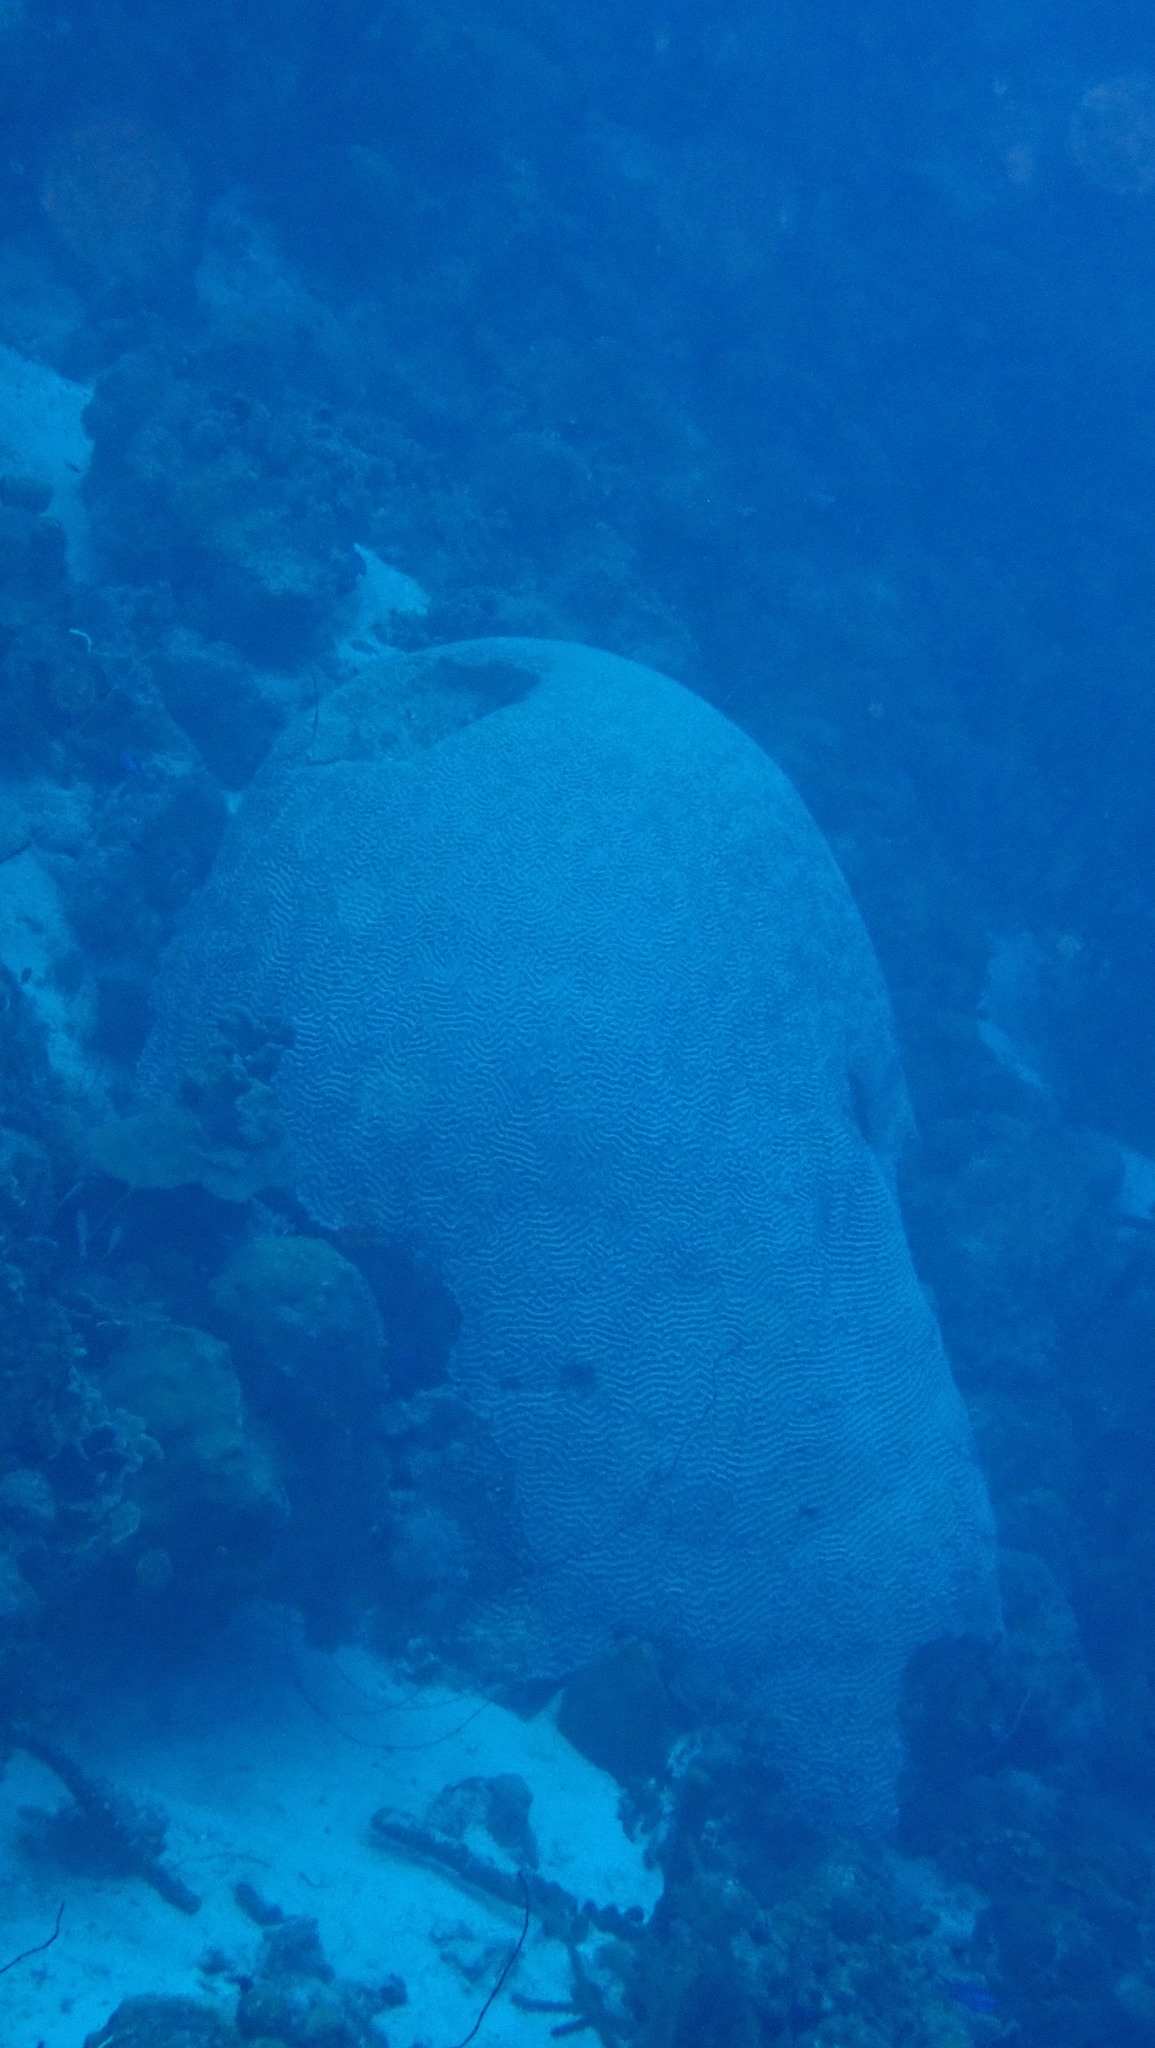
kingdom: Animalia
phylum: Cnidaria
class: Anthozoa
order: Scleractinia
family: Faviidae
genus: Pseudodiploria
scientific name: Pseudodiploria strigosa
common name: Symmetrical brain coral
